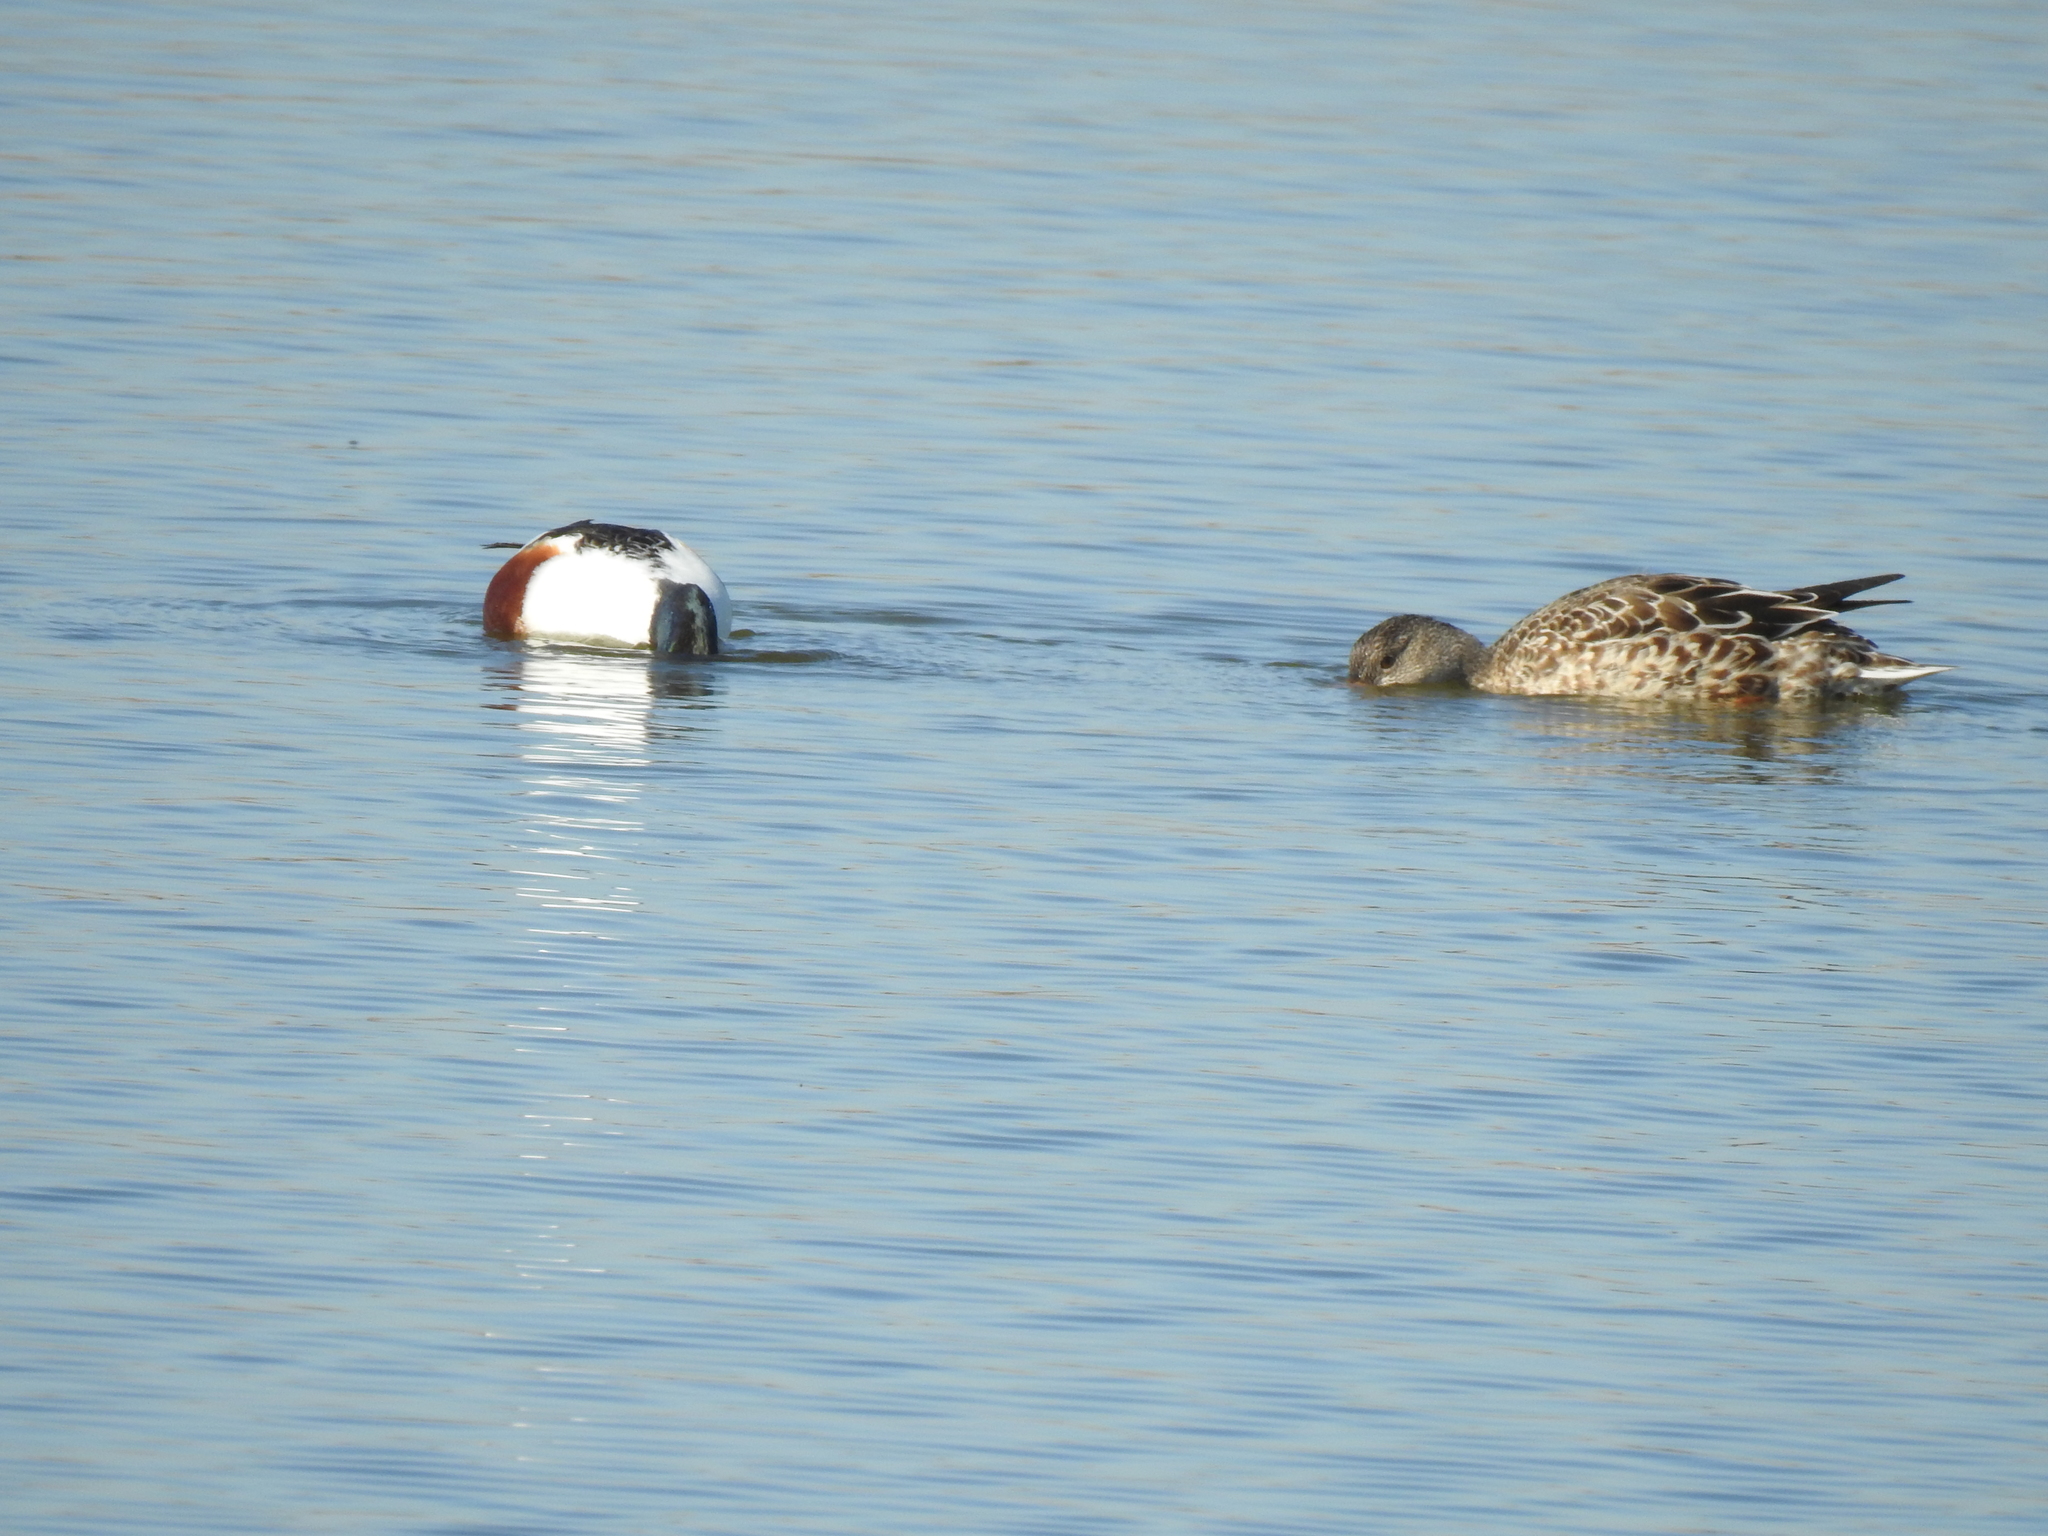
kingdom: Animalia
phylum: Chordata
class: Aves
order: Anseriformes
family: Anatidae
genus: Spatula
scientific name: Spatula clypeata
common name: Northern shoveler
